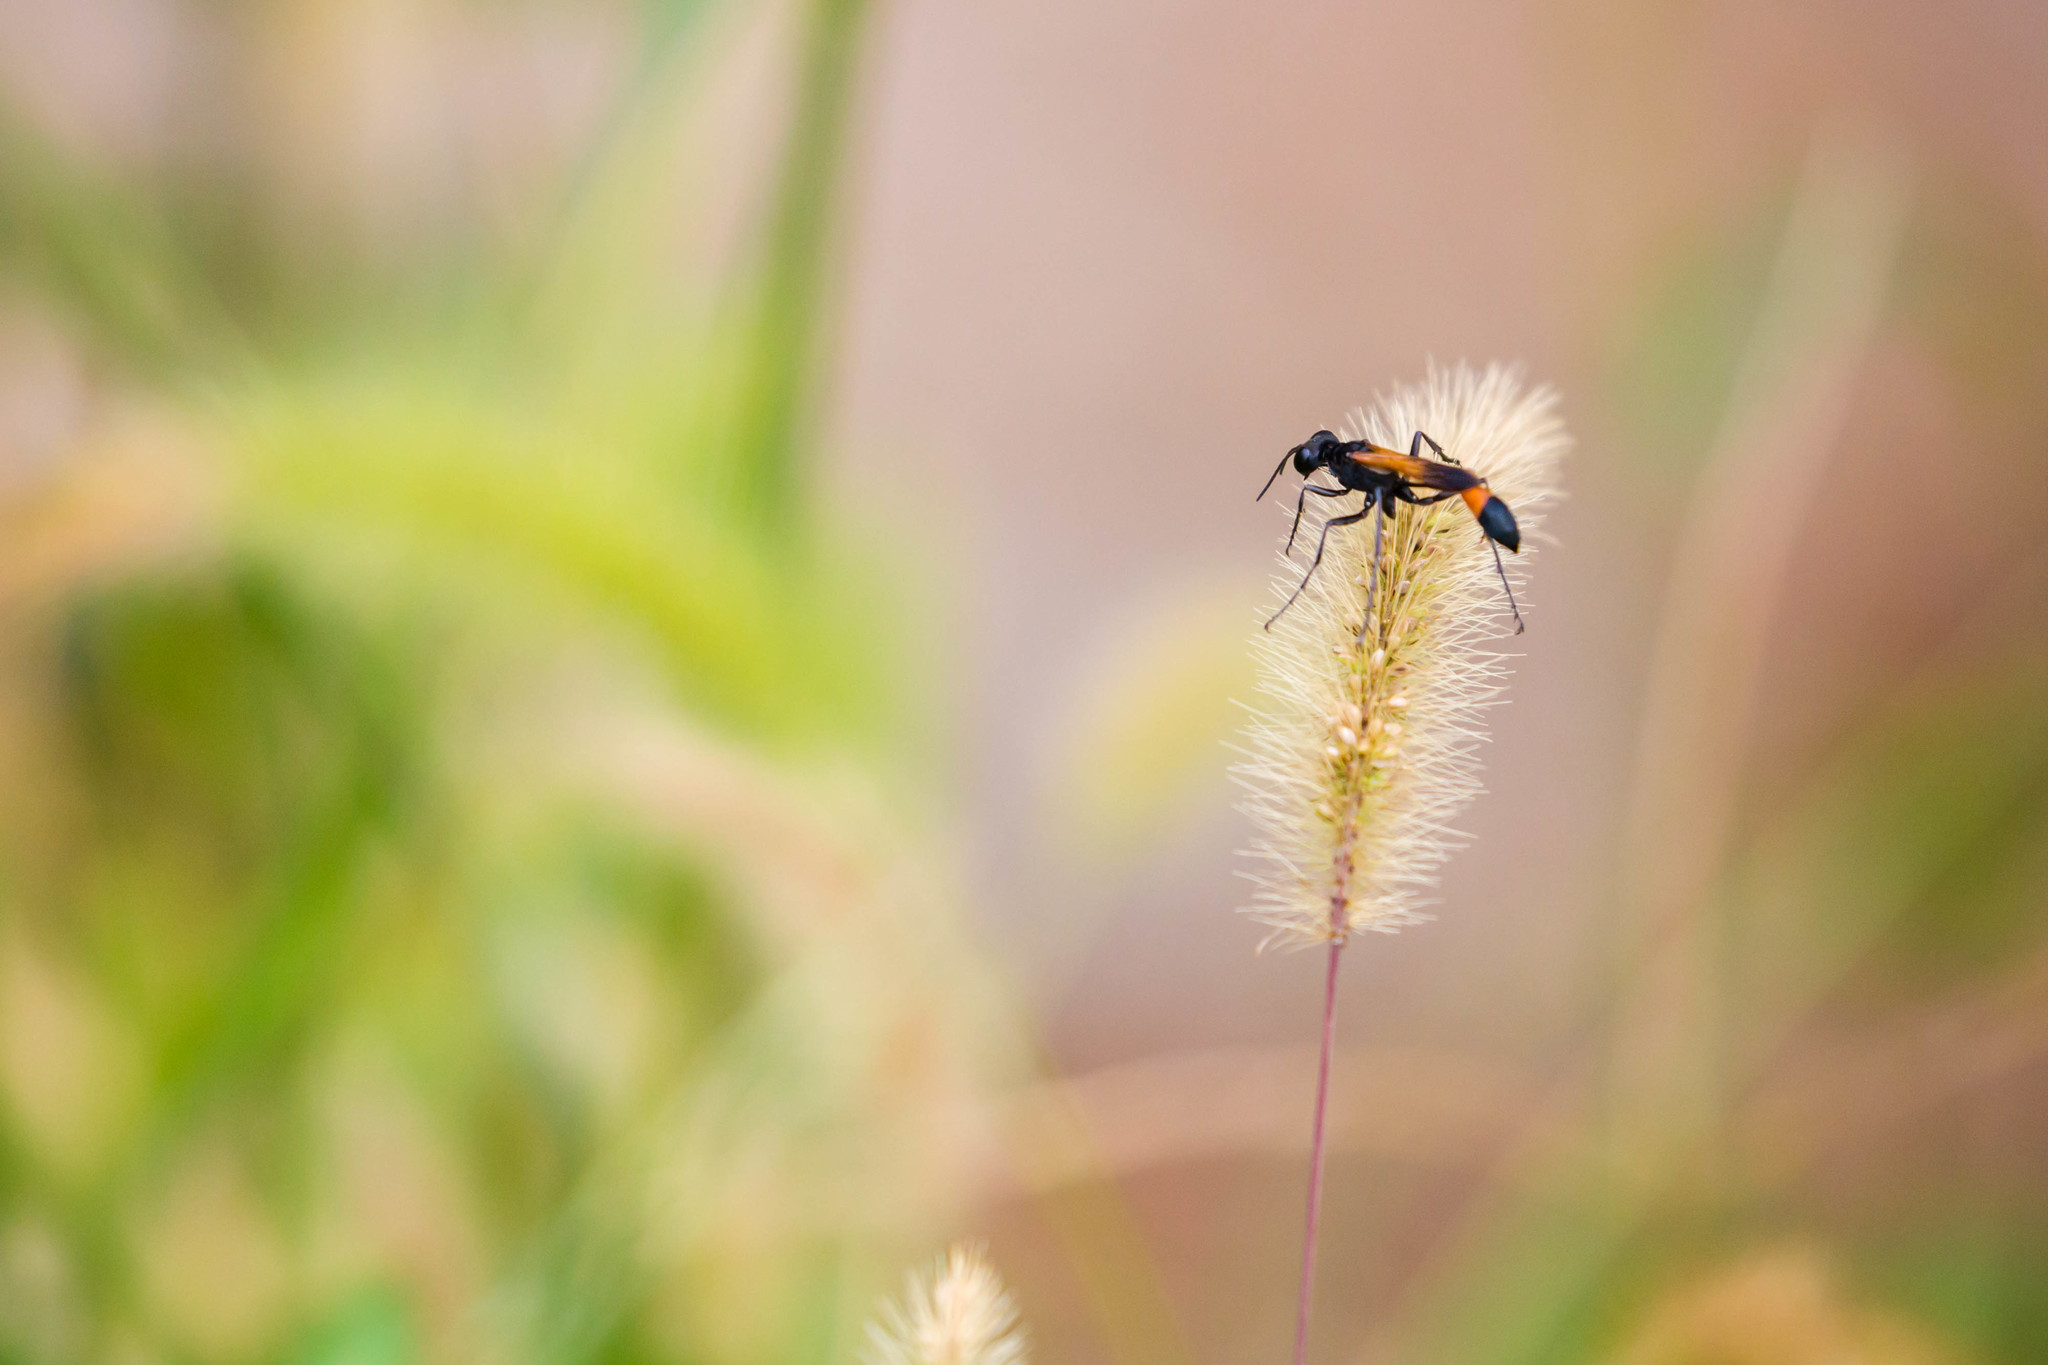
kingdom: Animalia
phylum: Arthropoda
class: Insecta
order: Hymenoptera
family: Sphecidae
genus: Ammophila
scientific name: Ammophila pictipennis
